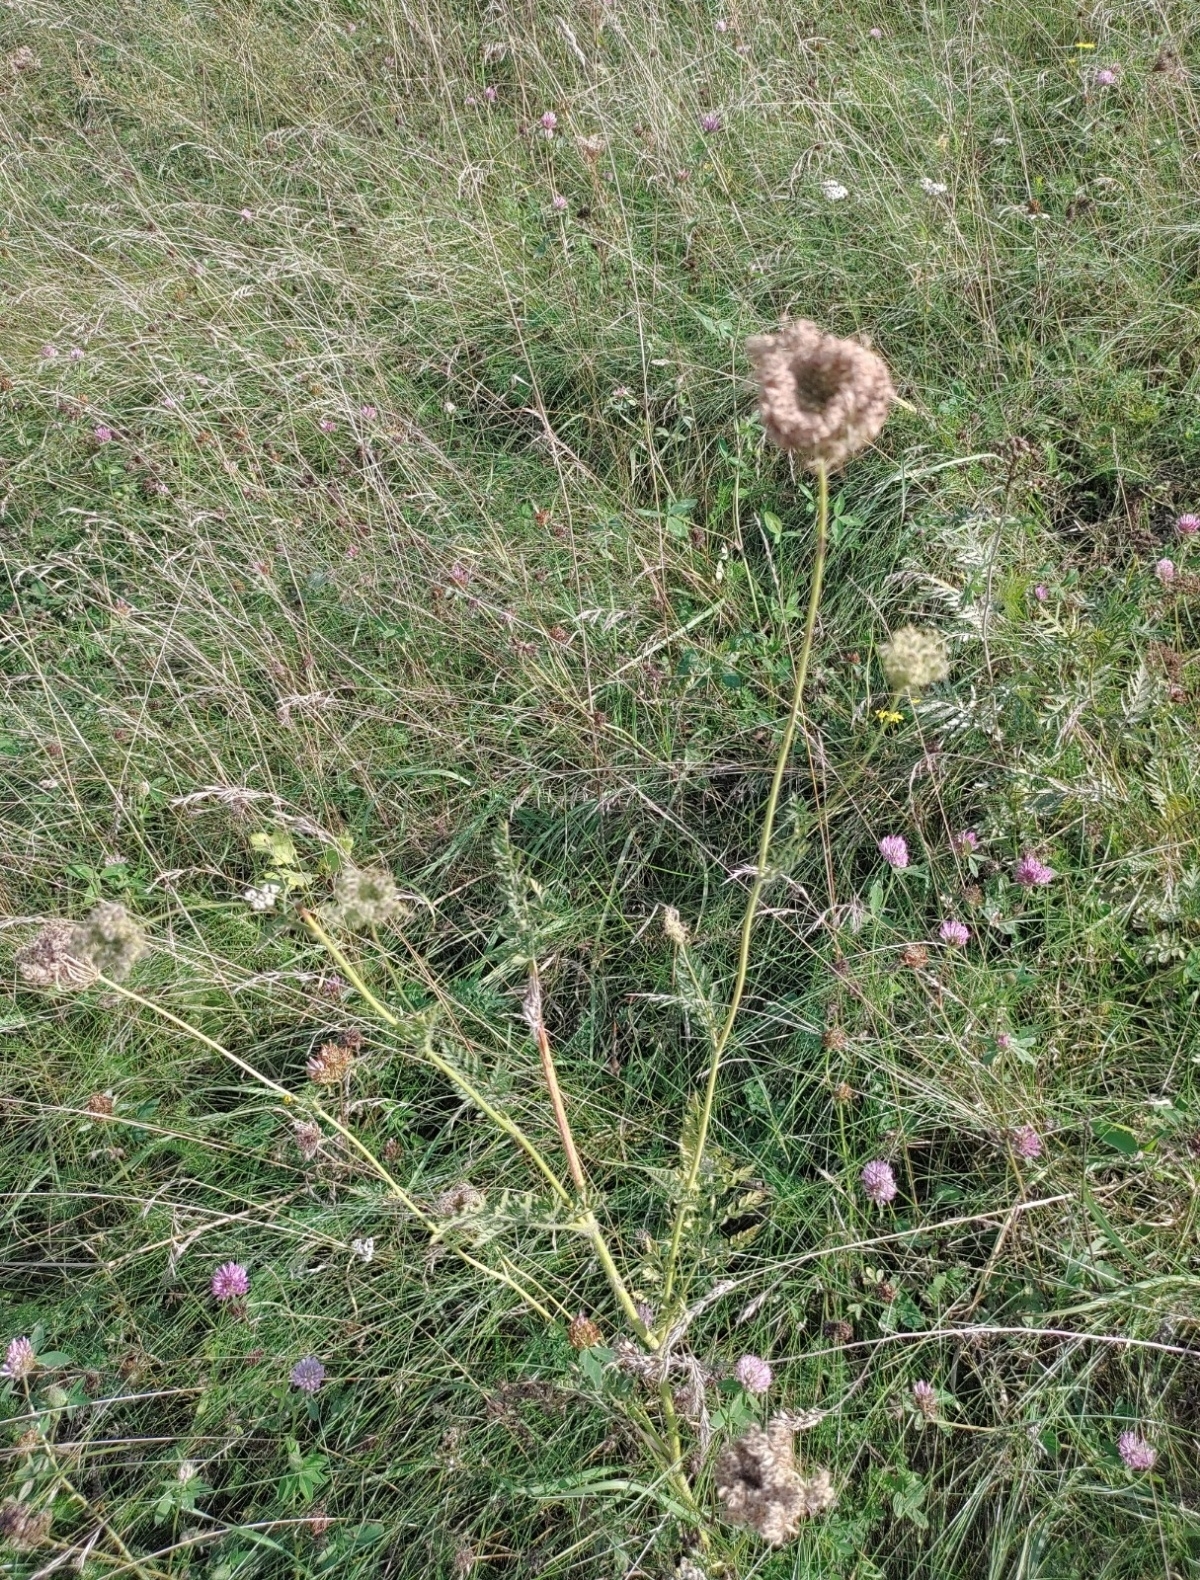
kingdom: Plantae
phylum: Tracheophyta
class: Magnoliopsida
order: Apiales
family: Apiaceae
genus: Daucus
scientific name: Daucus carota
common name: Wild carrot
